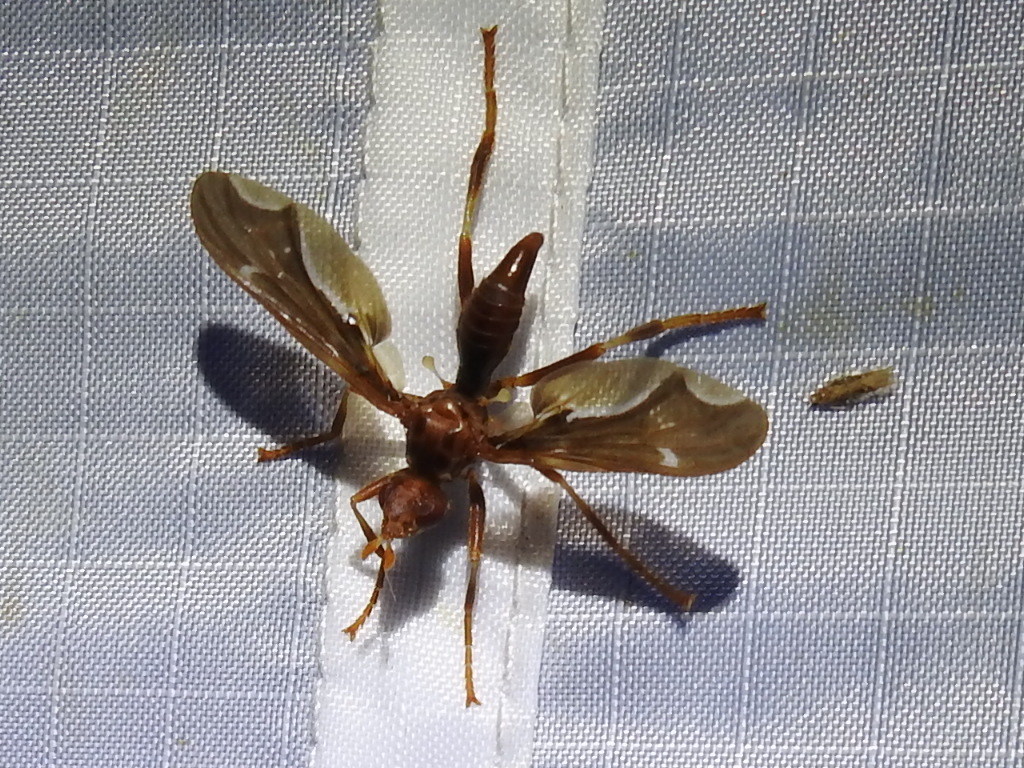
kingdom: Animalia
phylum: Arthropoda
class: Insecta
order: Diptera
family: Pyrgotidae
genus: Pyrgota
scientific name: Pyrgota undata
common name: Waved light fly
